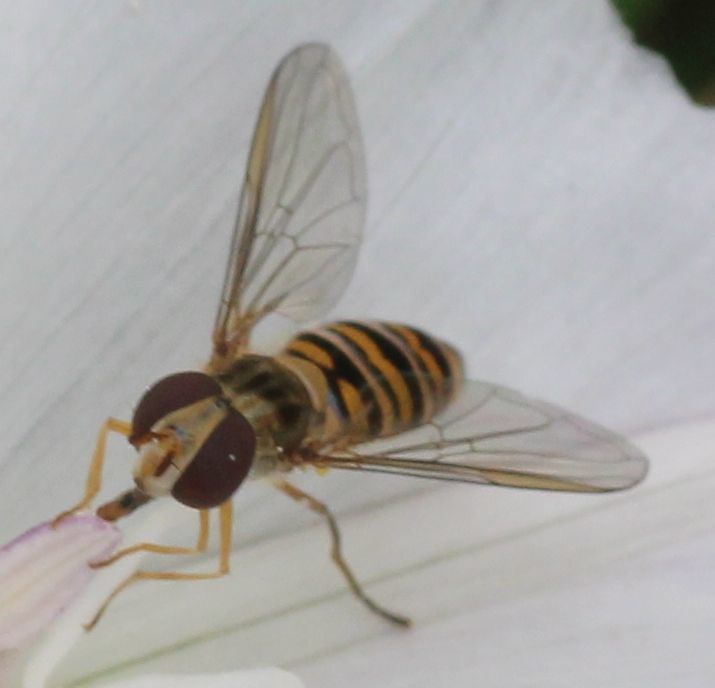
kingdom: Animalia
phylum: Arthropoda
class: Insecta
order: Diptera
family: Syrphidae
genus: Episyrphus
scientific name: Episyrphus balteatus
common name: Marmalade hoverfly
